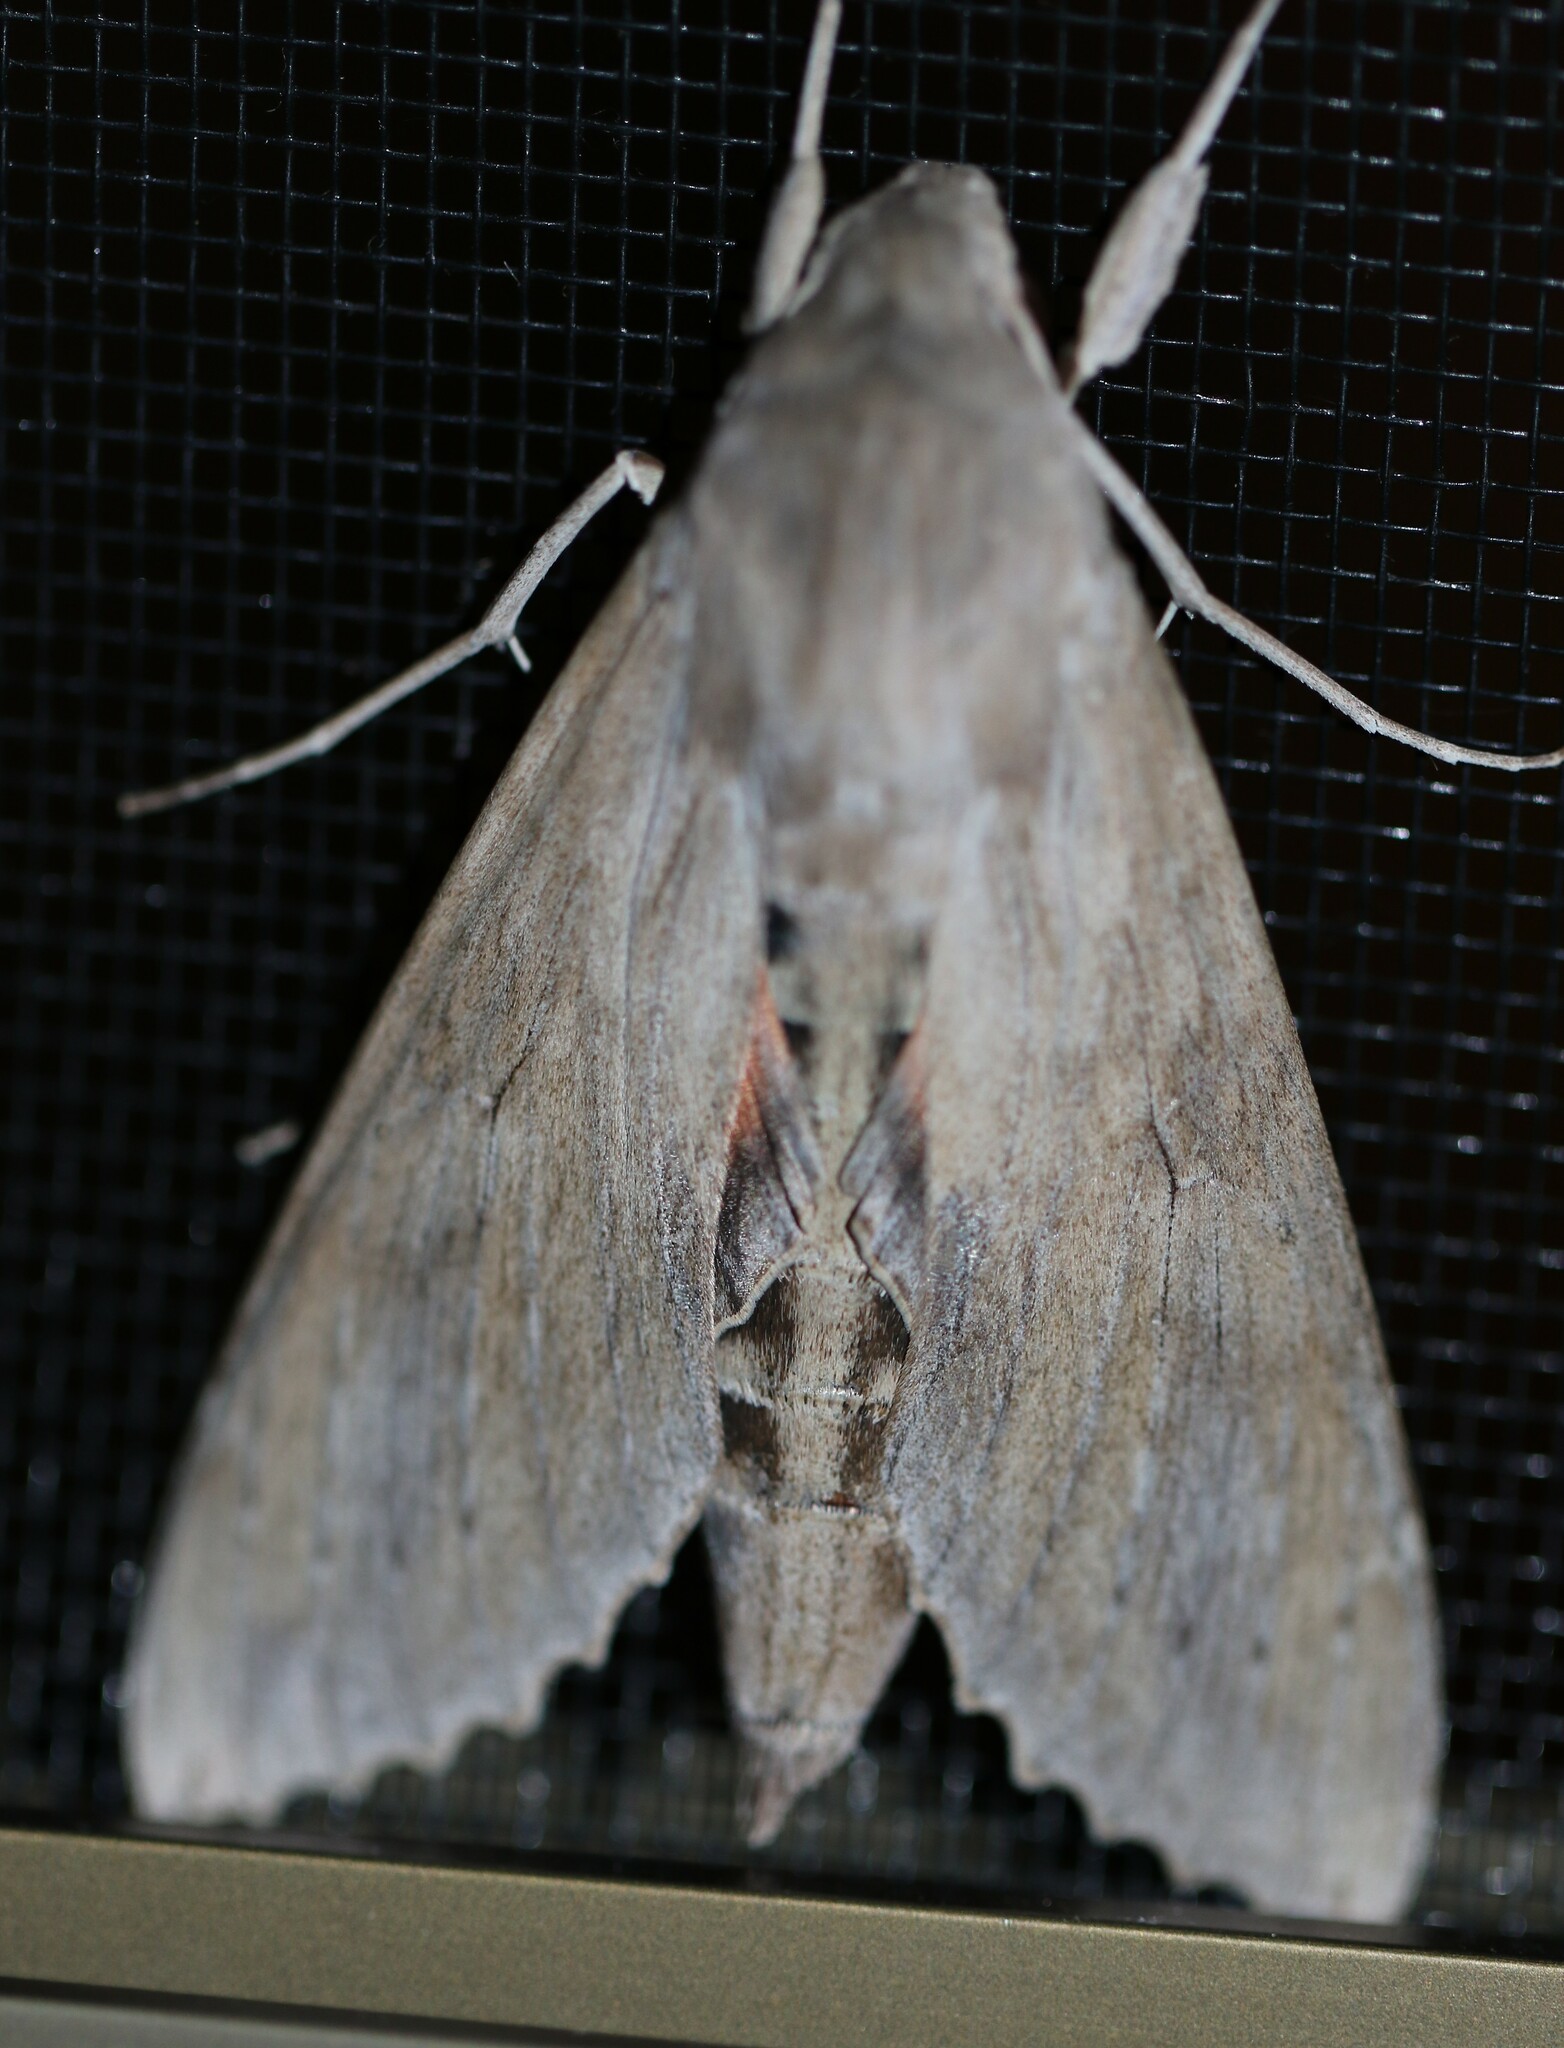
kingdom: Animalia
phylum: Arthropoda
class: Insecta
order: Lepidoptera
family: Sphingidae
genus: Erinnyis
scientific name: Erinnyis ello
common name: Ello sphinx
